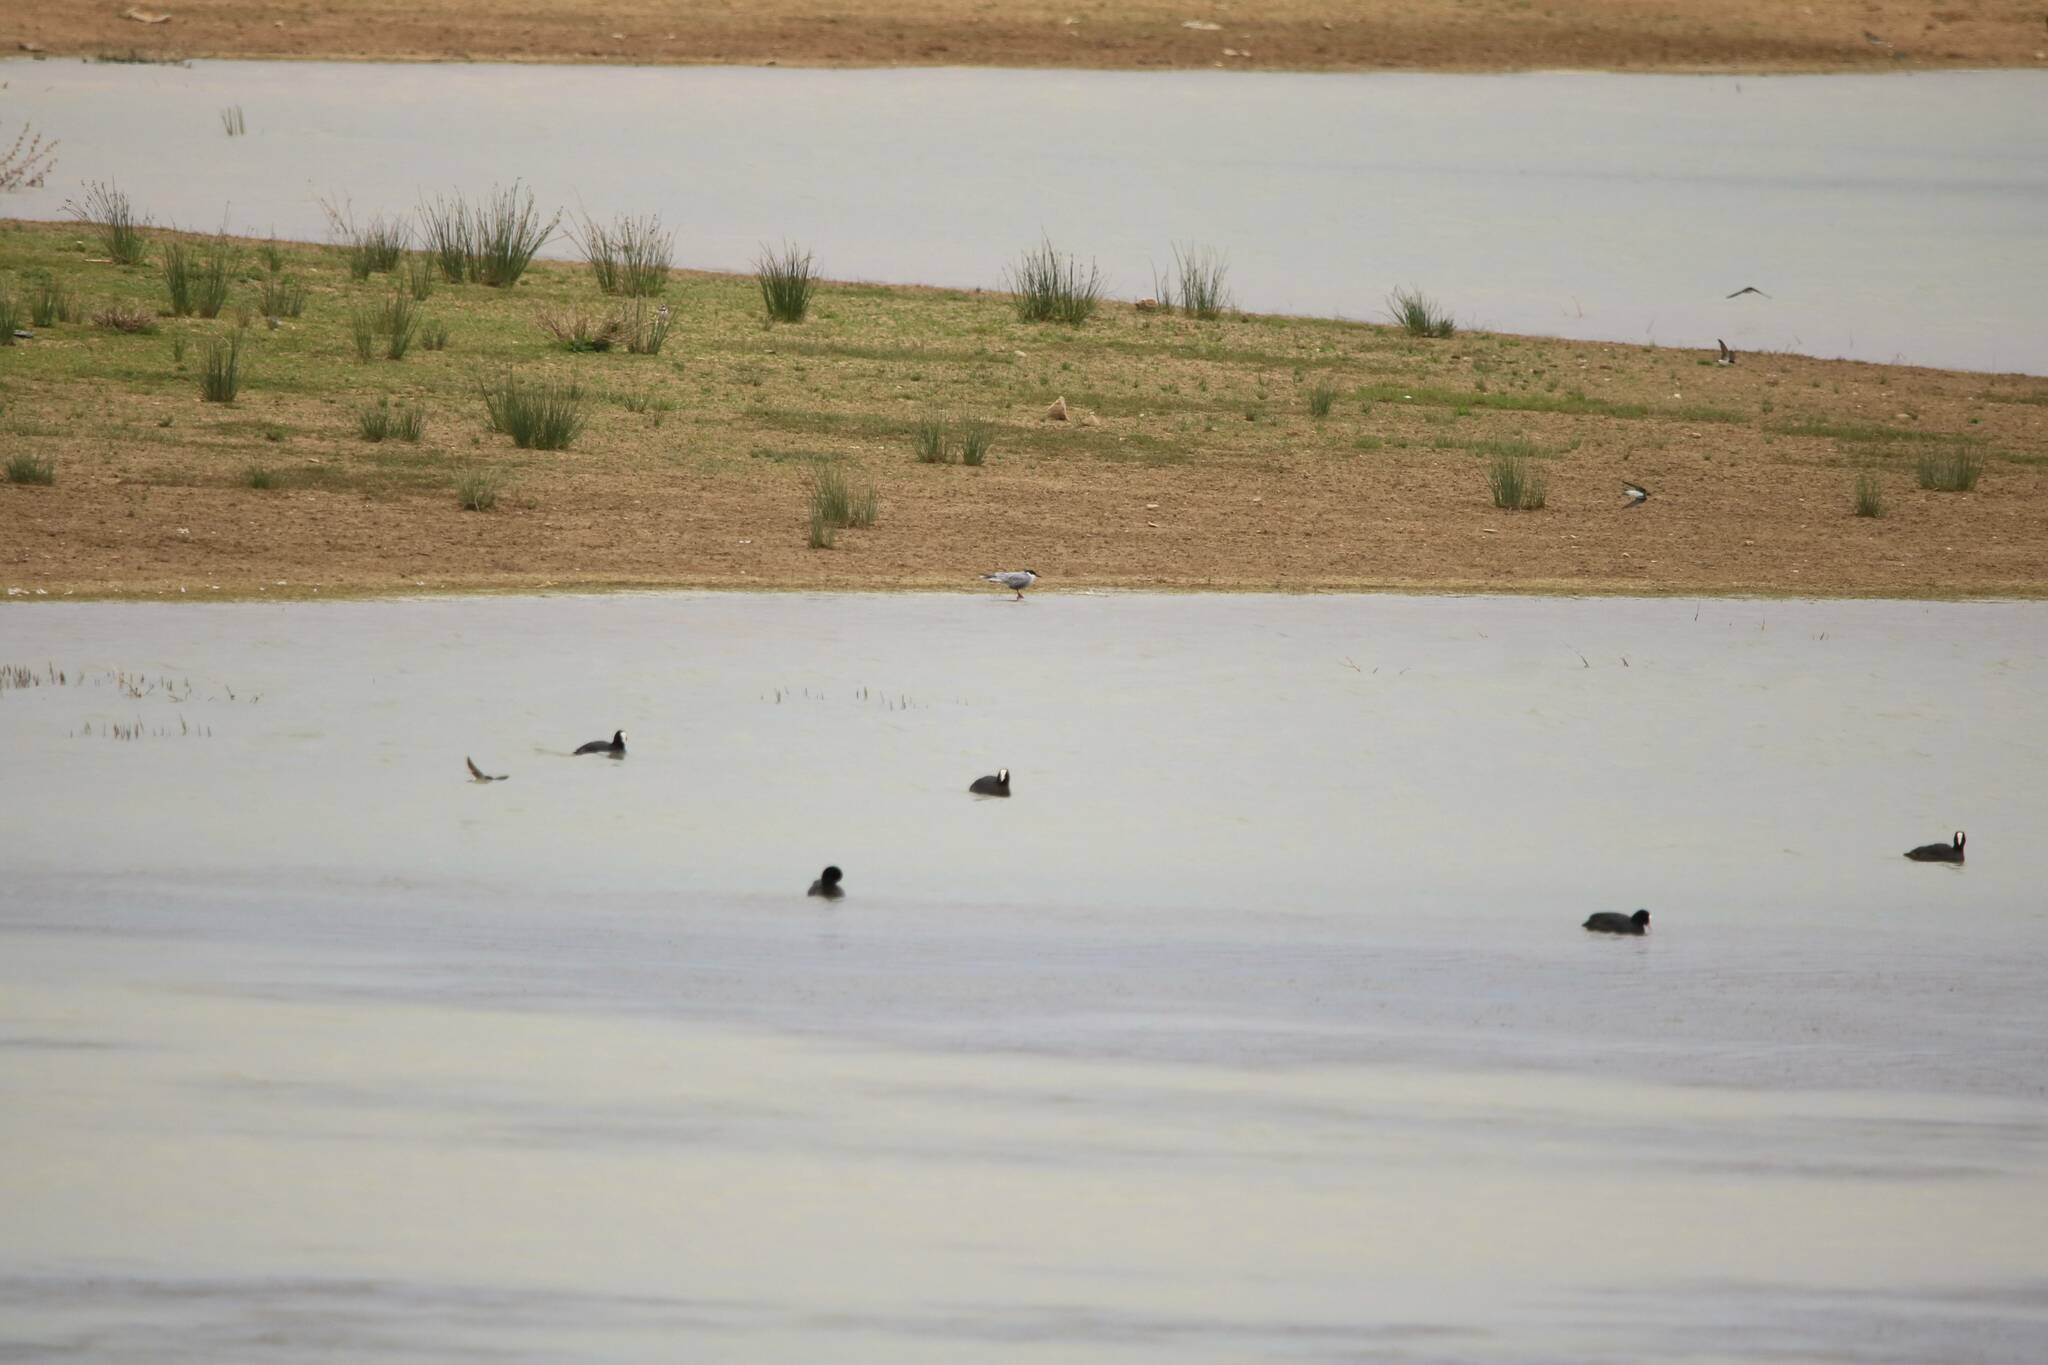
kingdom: Animalia
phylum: Chordata
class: Aves
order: Gruiformes
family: Rallidae
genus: Fulica
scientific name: Fulica atra
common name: Eurasian coot
